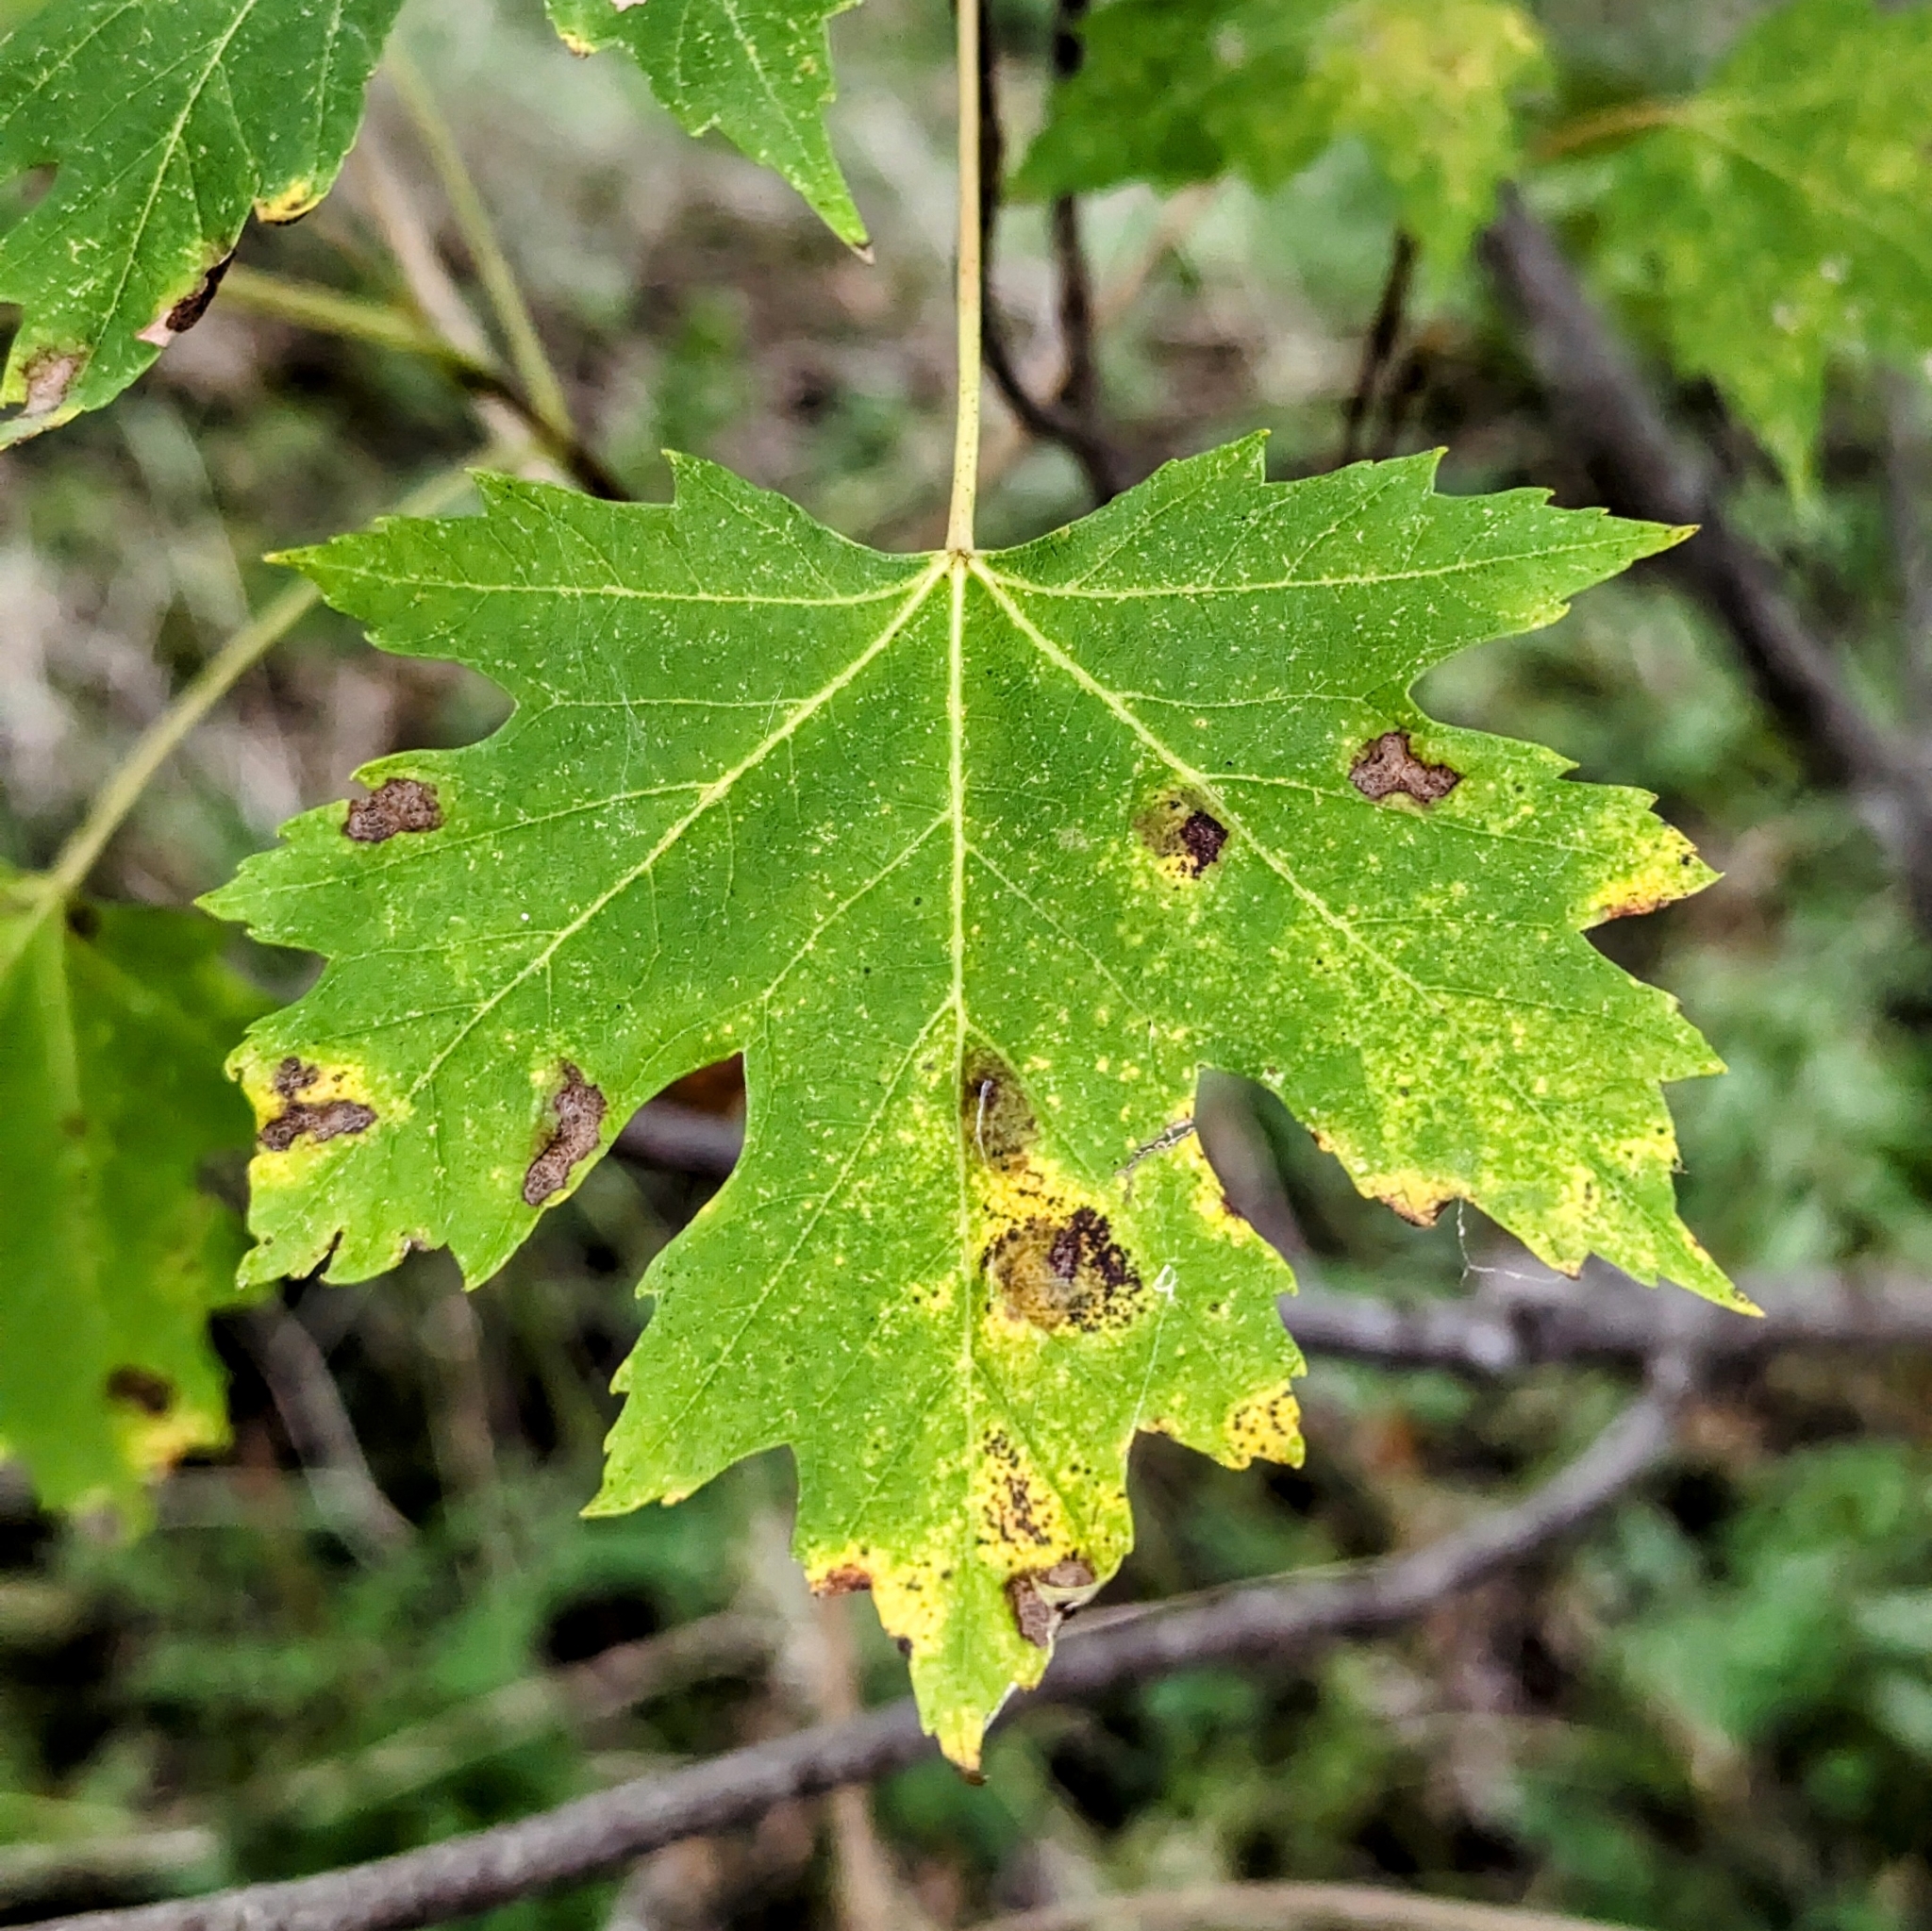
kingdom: Plantae
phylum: Tracheophyta
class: Magnoliopsida
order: Sapindales
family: Sapindaceae
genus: Acer
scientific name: Acer saccharinum
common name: Silver maple
